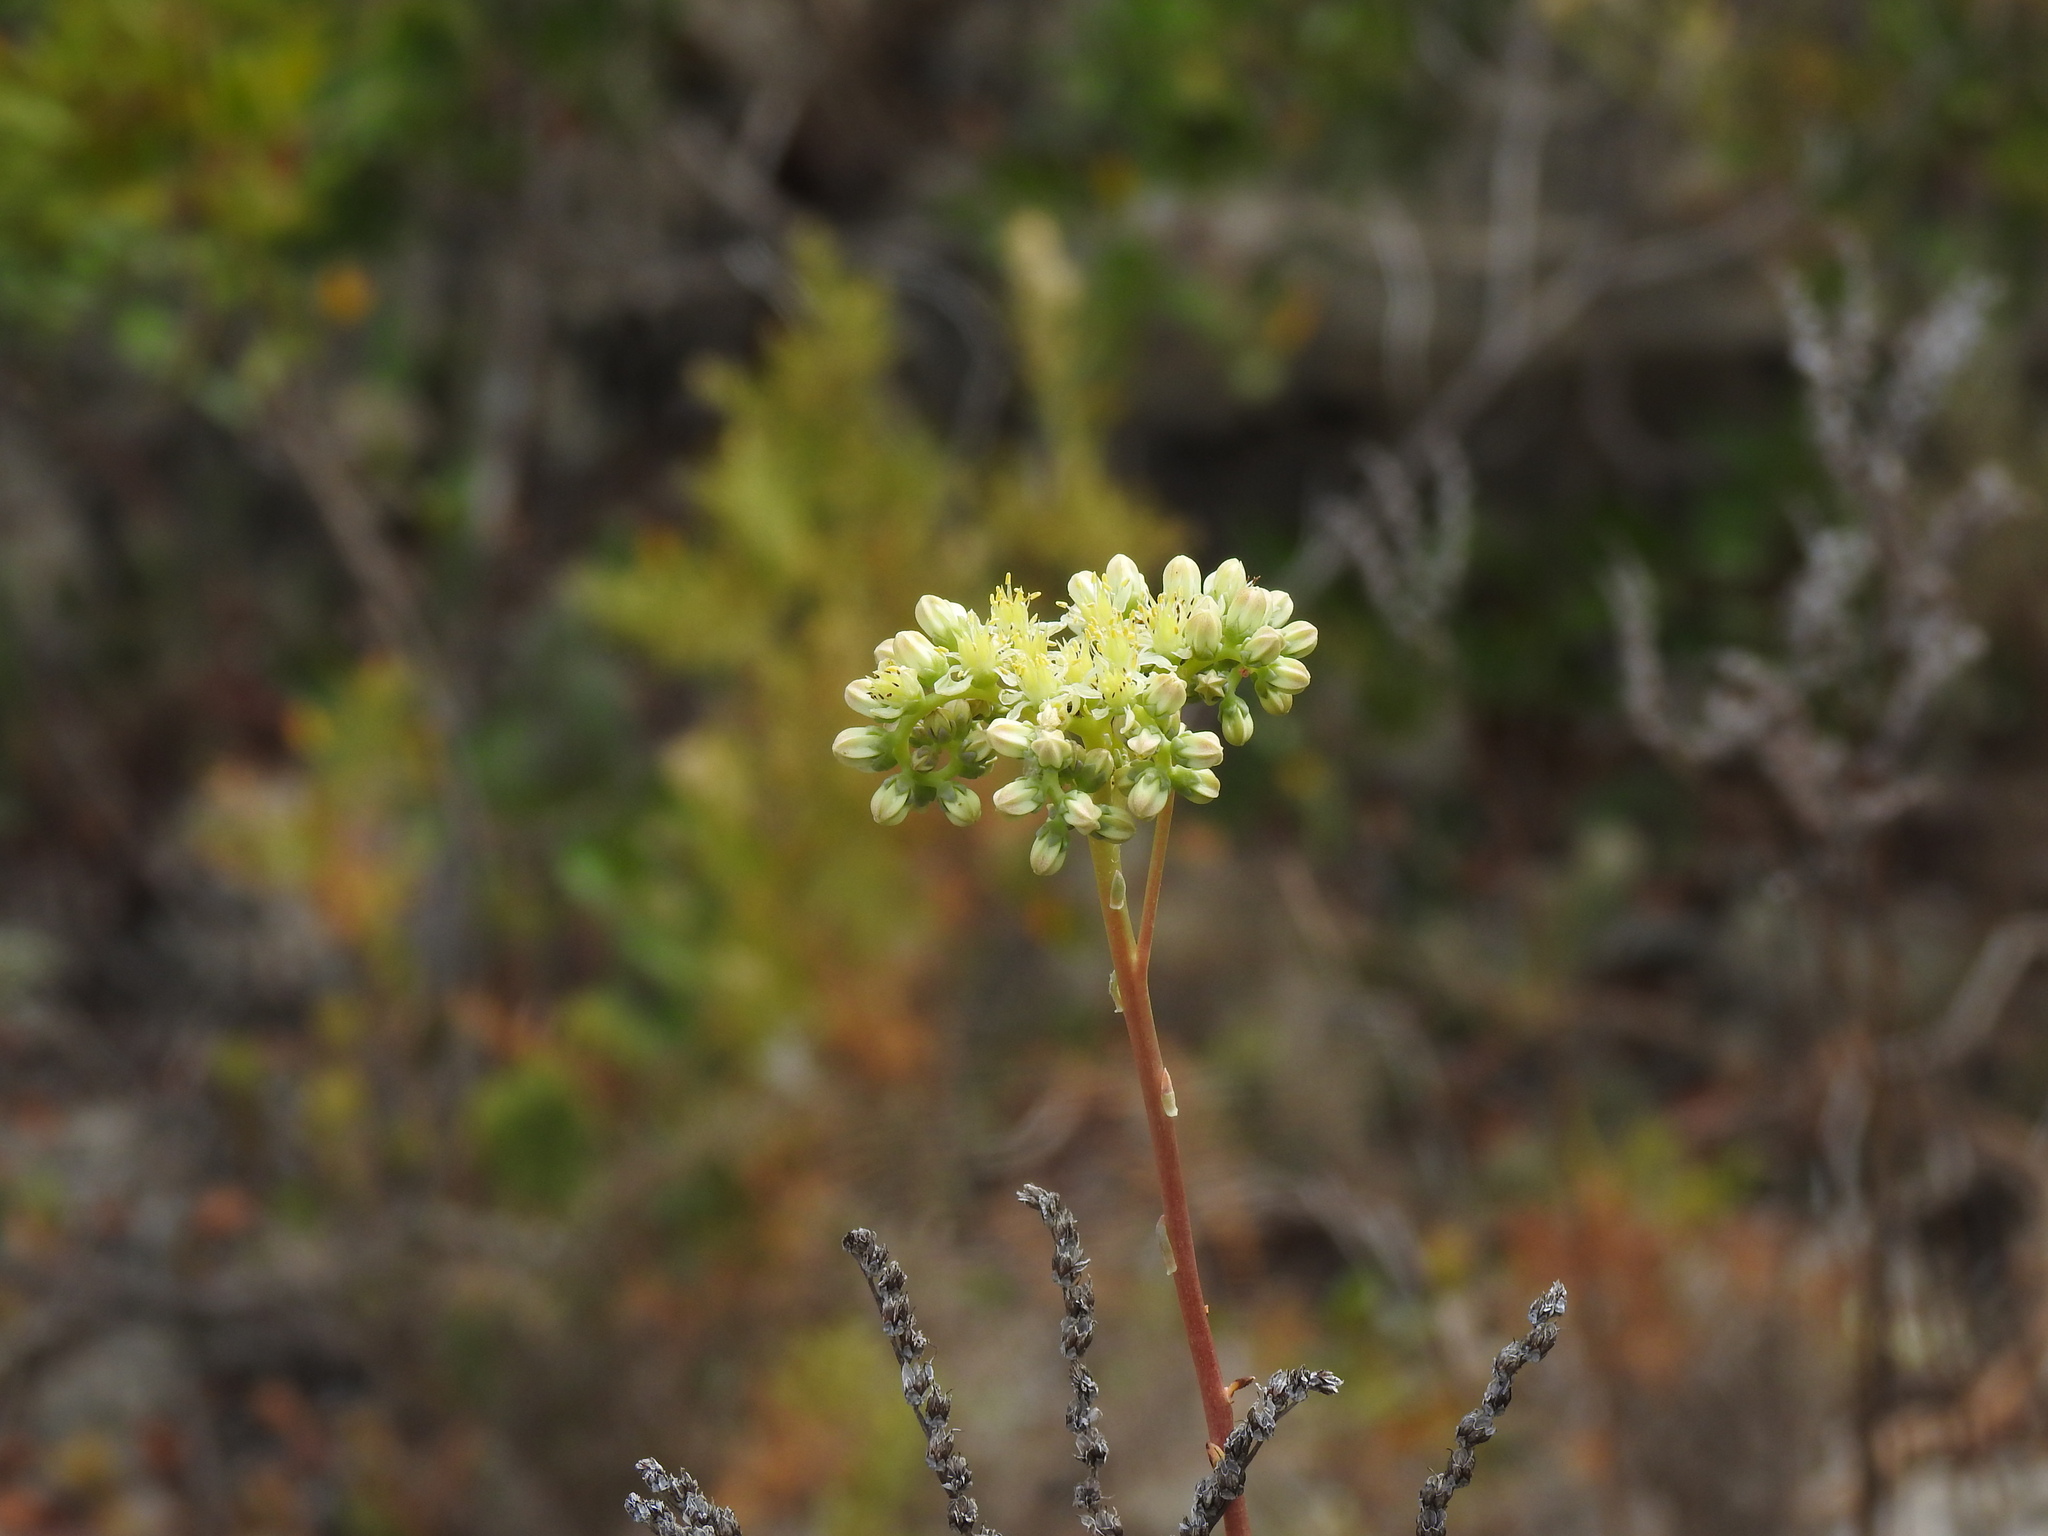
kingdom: Plantae
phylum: Tracheophyta
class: Magnoliopsida
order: Saxifragales
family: Crassulaceae
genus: Petrosedum
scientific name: Petrosedum sediforme
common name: Pale stonecrop
